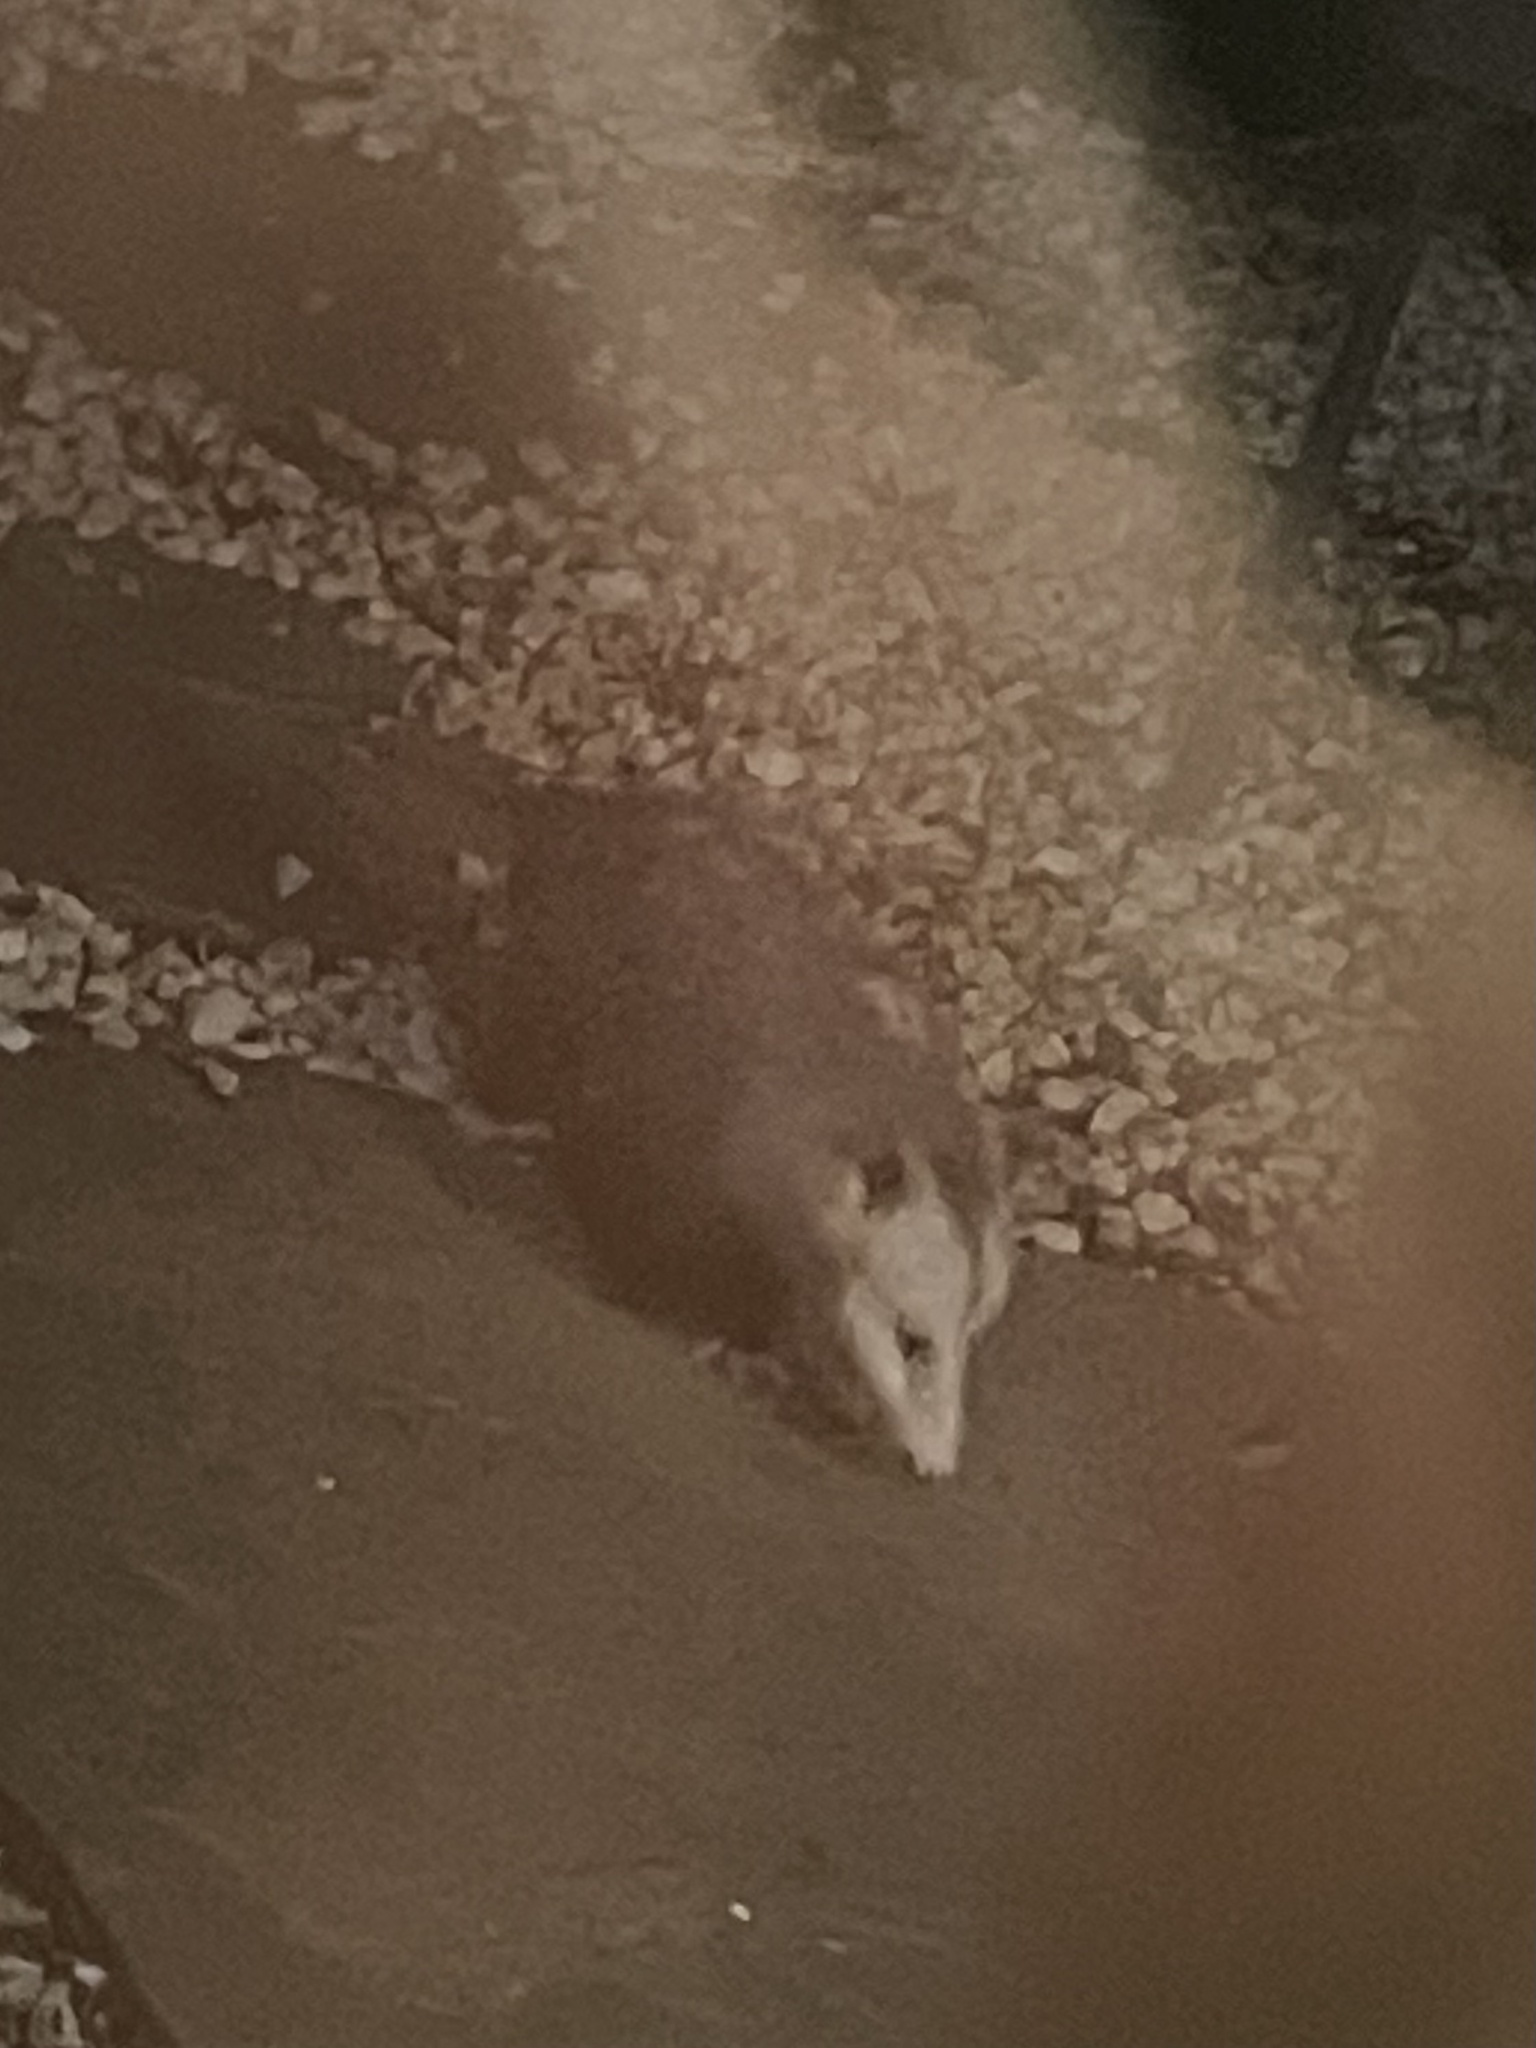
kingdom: Animalia
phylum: Chordata
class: Mammalia
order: Didelphimorphia
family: Didelphidae
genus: Didelphis
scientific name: Didelphis virginiana
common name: Virginia opossum
